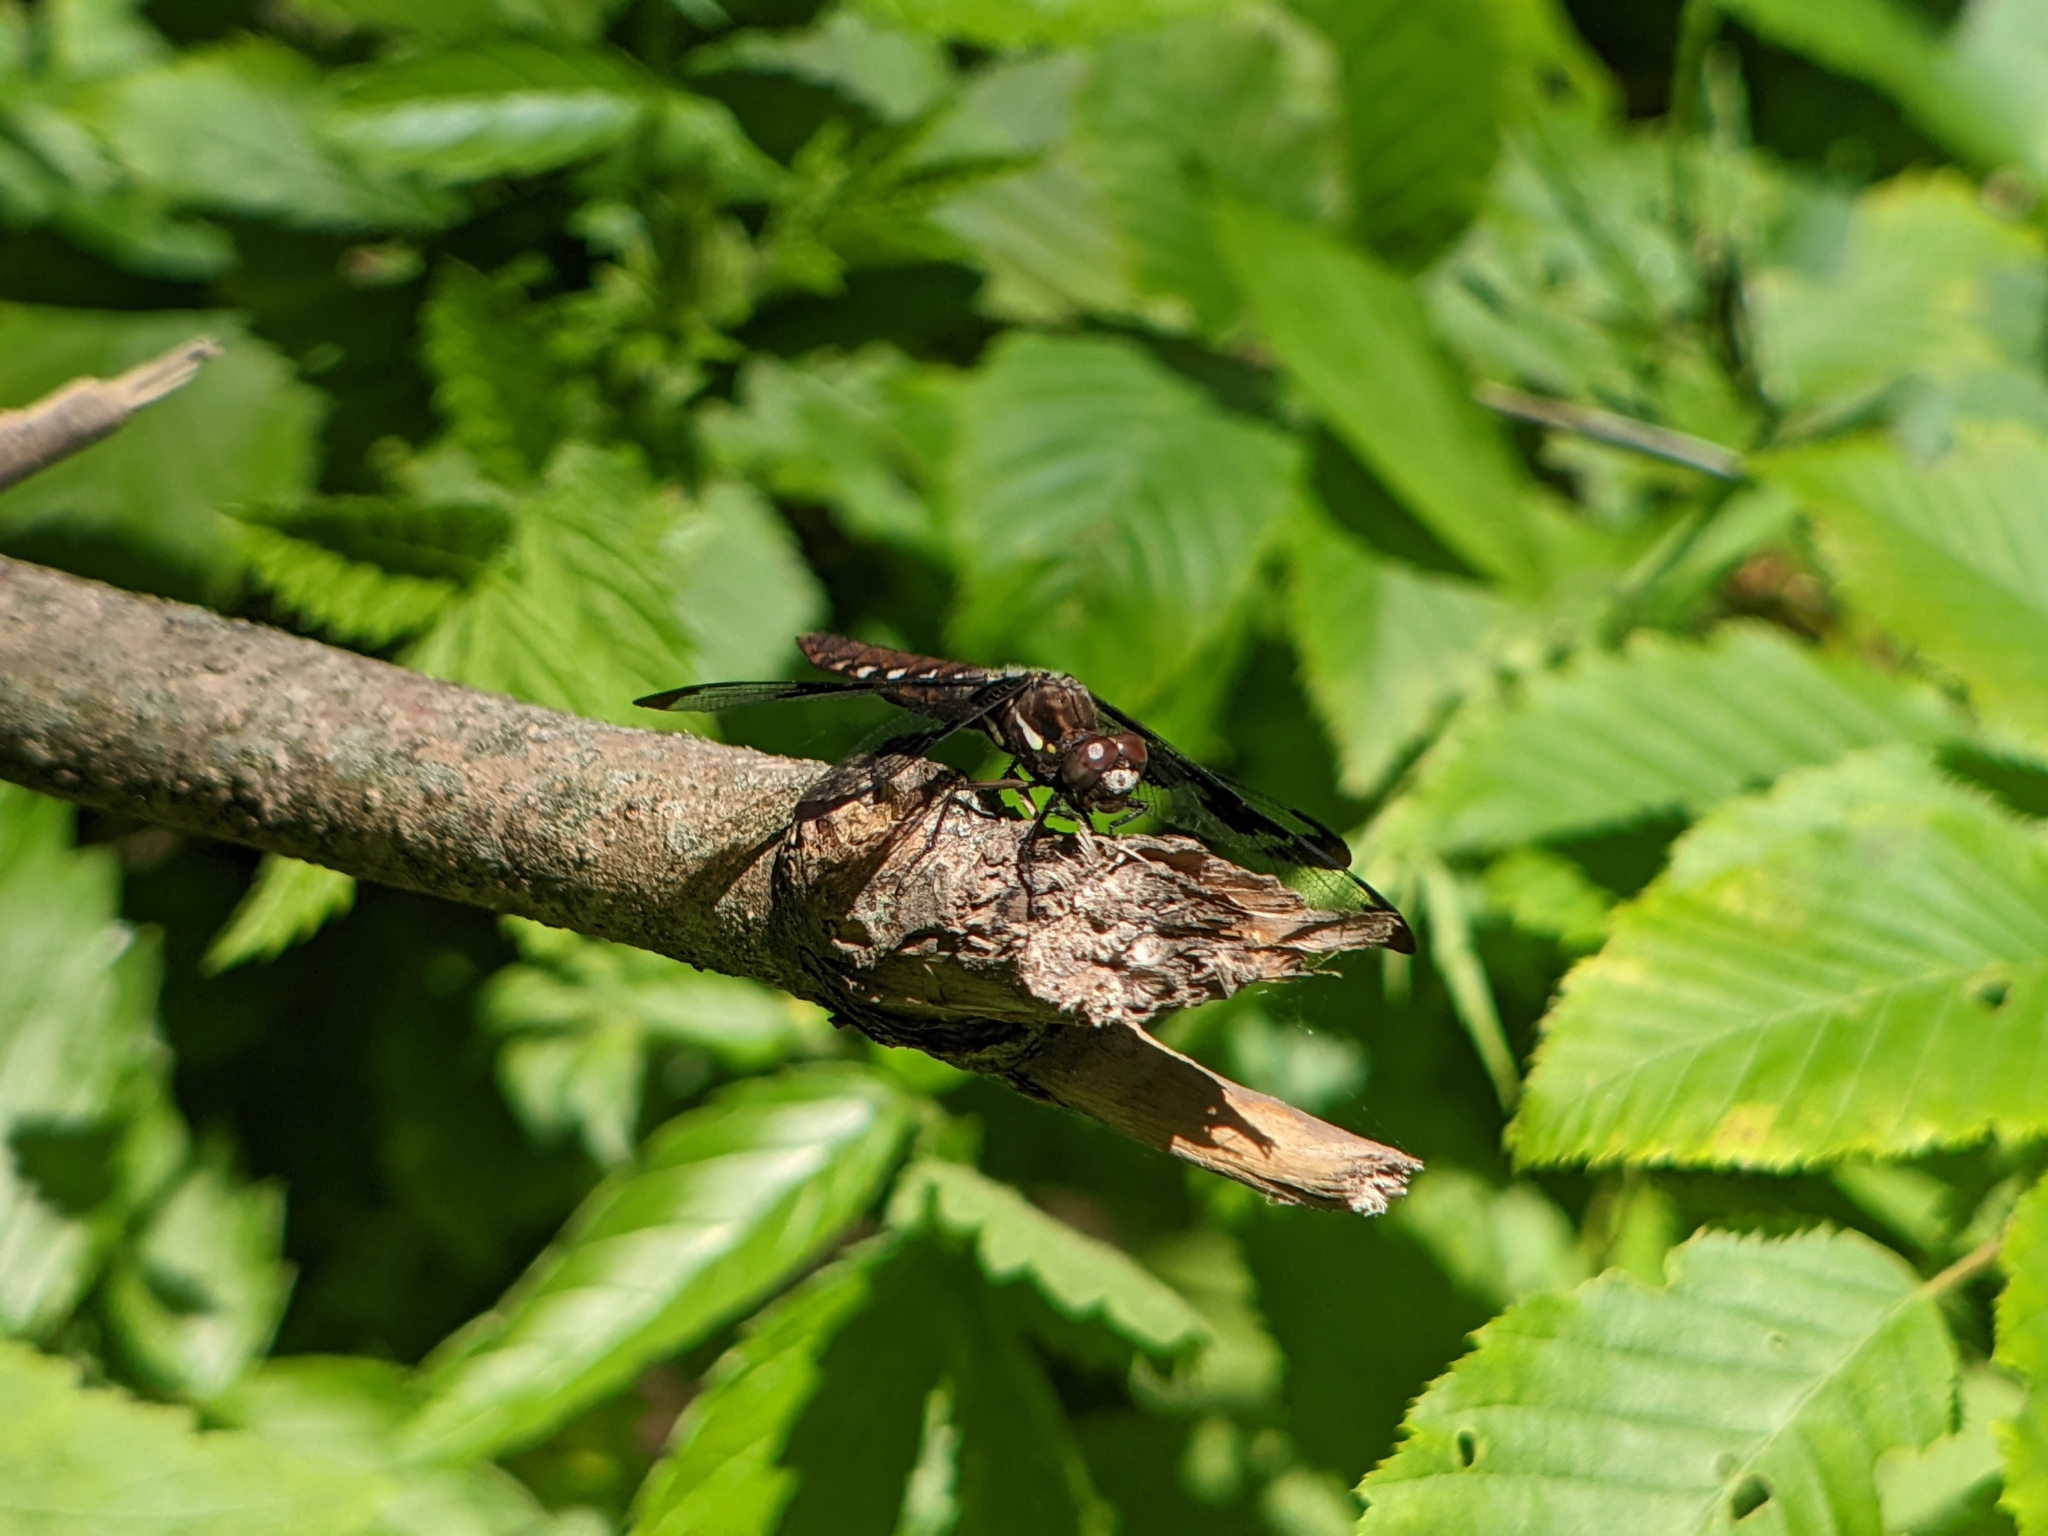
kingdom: Animalia
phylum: Arthropoda
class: Insecta
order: Odonata
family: Libellulidae
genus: Plathemis
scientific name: Plathemis lydia
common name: Common whitetail
